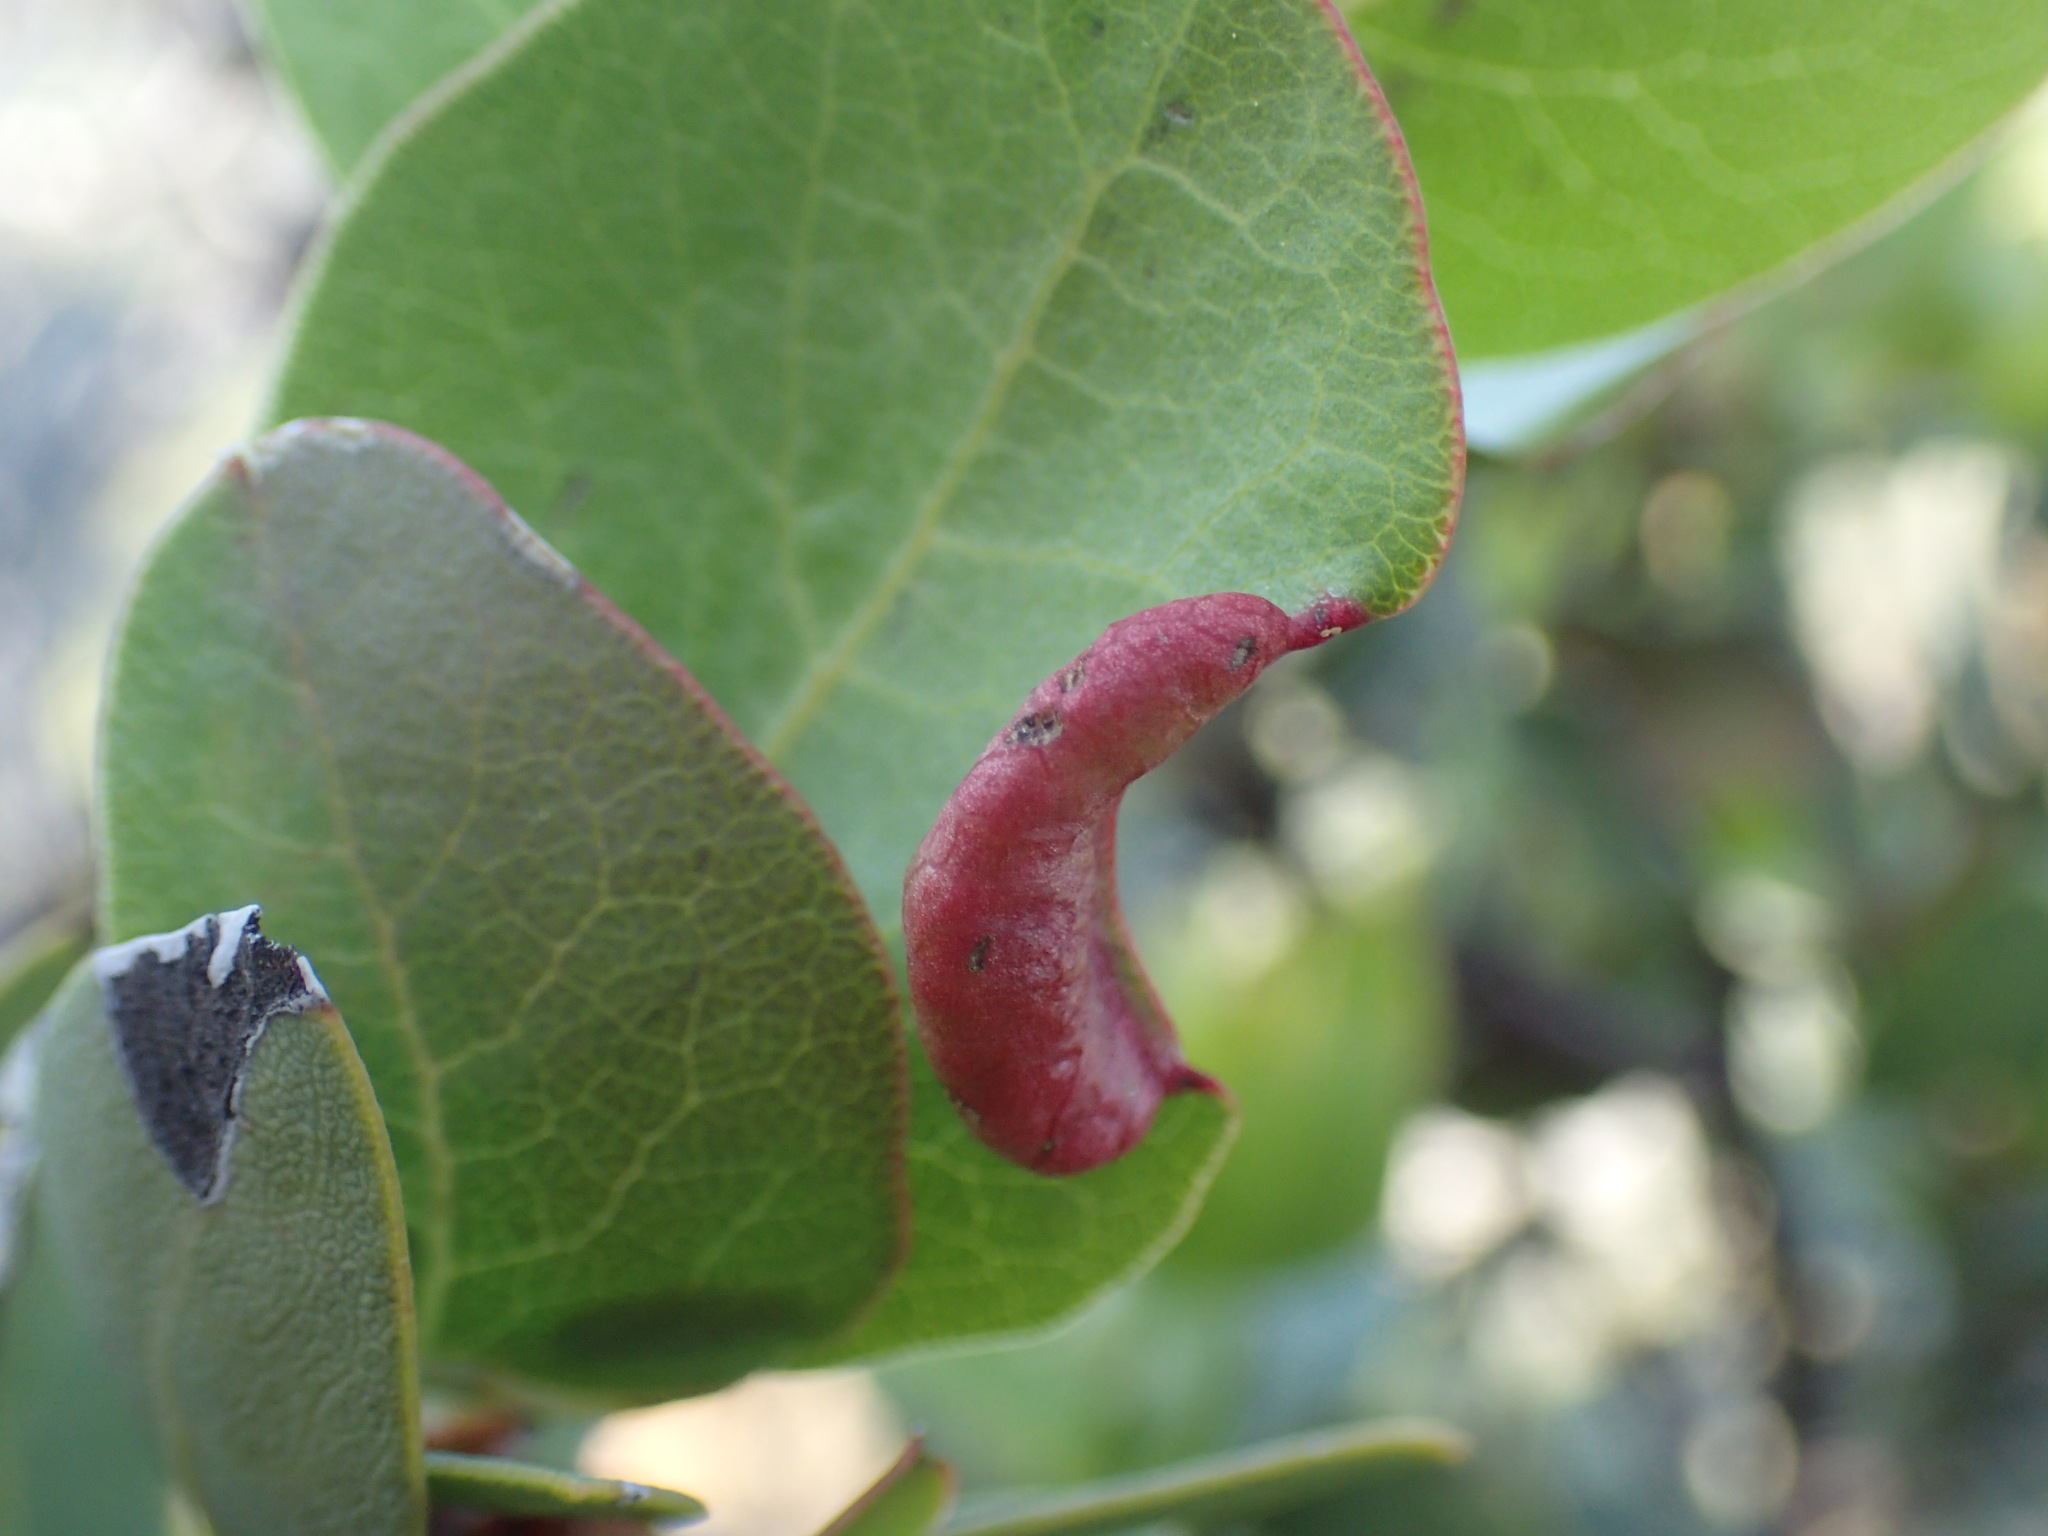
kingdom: Animalia
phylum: Arthropoda
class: Insecta
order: Hemiptera
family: Aphididae
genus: Tamalia
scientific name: Tamalia
